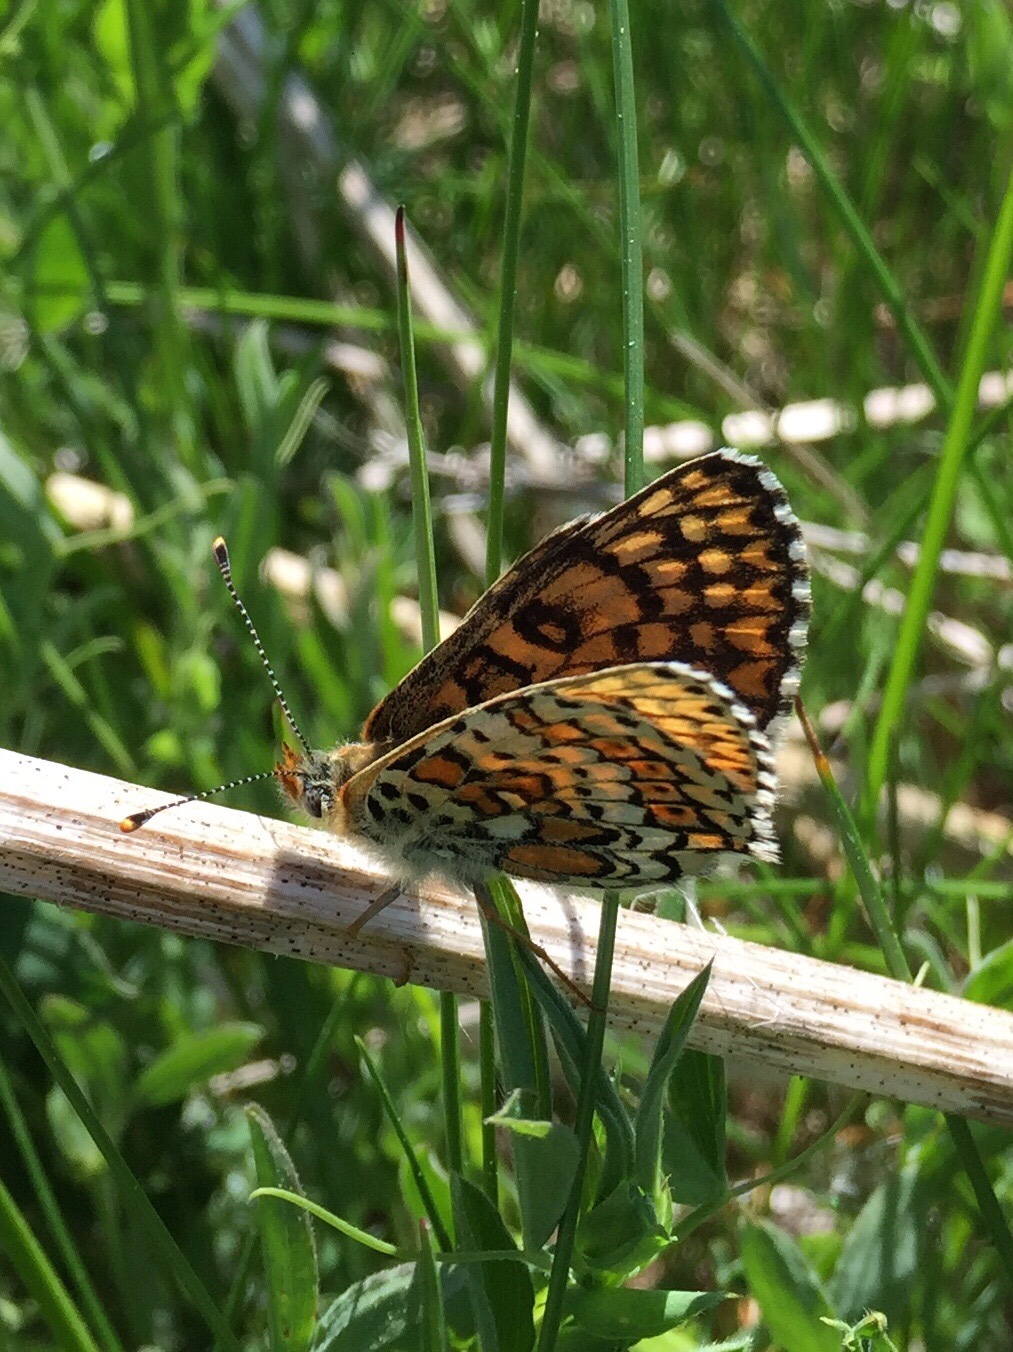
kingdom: Animalia
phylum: Arthropoda
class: Insecta
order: Lepidoptera
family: Nymphalidae
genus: Melitaea
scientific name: Melitaea cinxia
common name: Glanville fritillary
